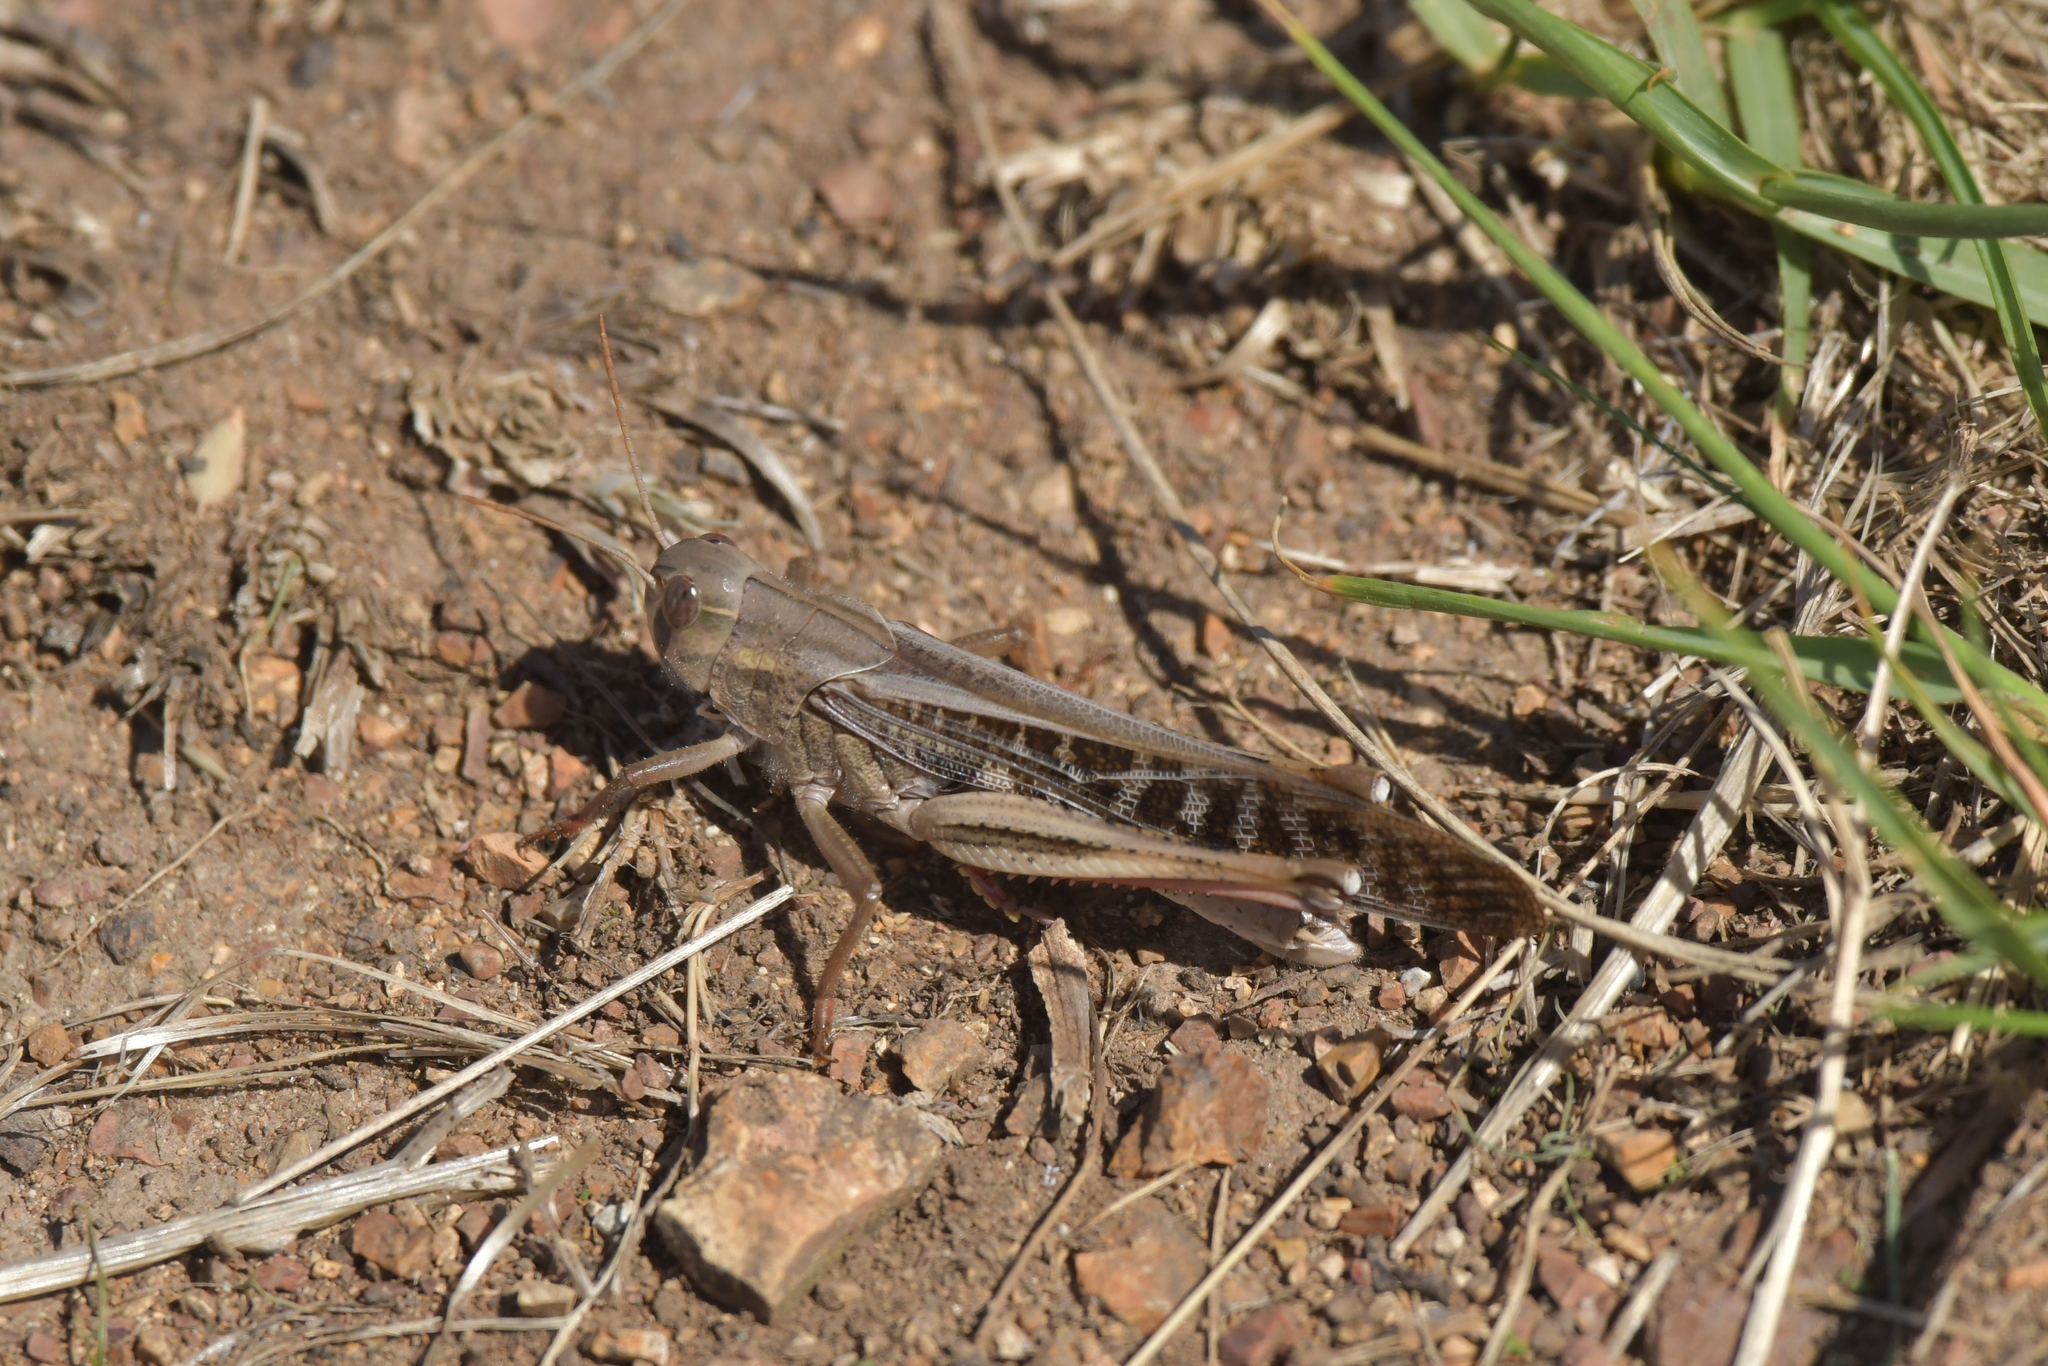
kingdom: Animalia
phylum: Arthropoda
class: Insecta
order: Orthoptera
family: Acrididae
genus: Locusta
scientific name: Locusta migratoria
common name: Migratory locust
